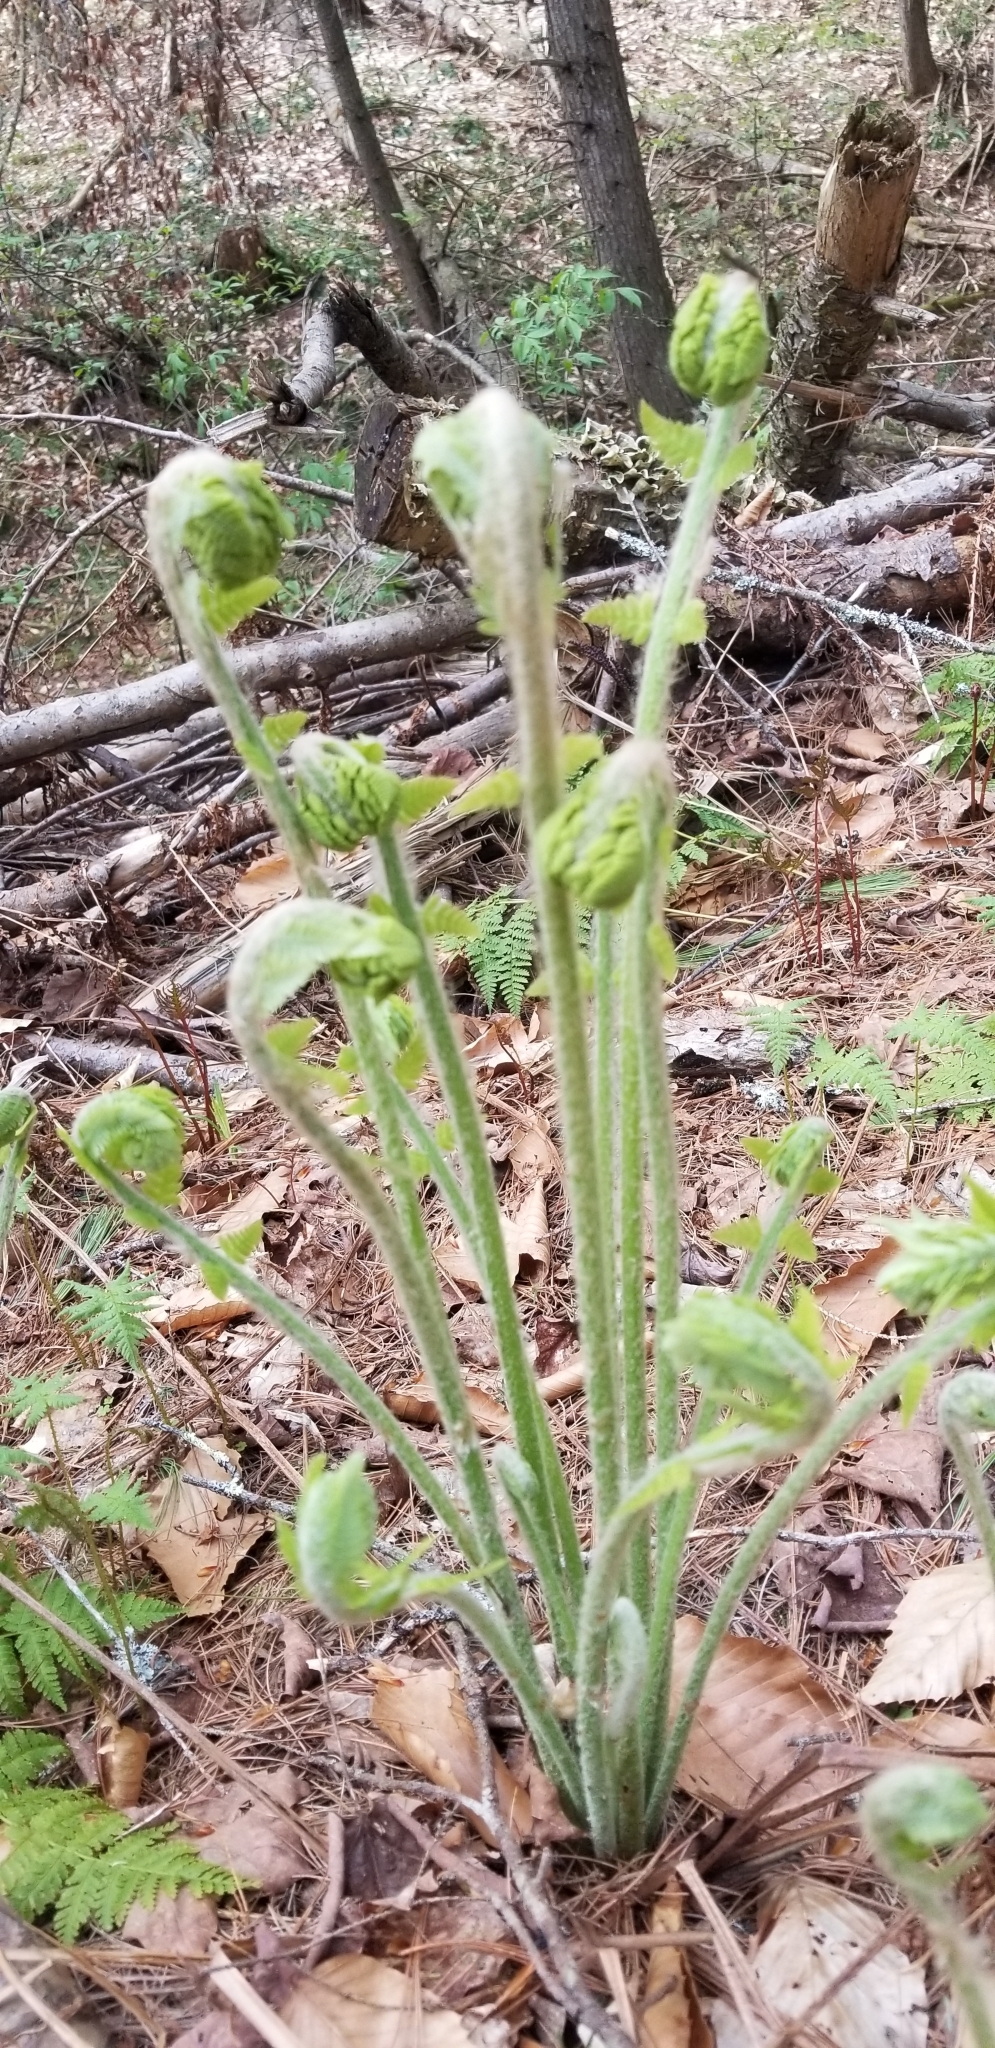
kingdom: Plantae
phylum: Tracheophyta
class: Polypodiopsida
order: Osmundales
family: Osmundaceae
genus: Claytosmunda
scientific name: Claytosmunda claytoniana
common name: Clayton's fern
